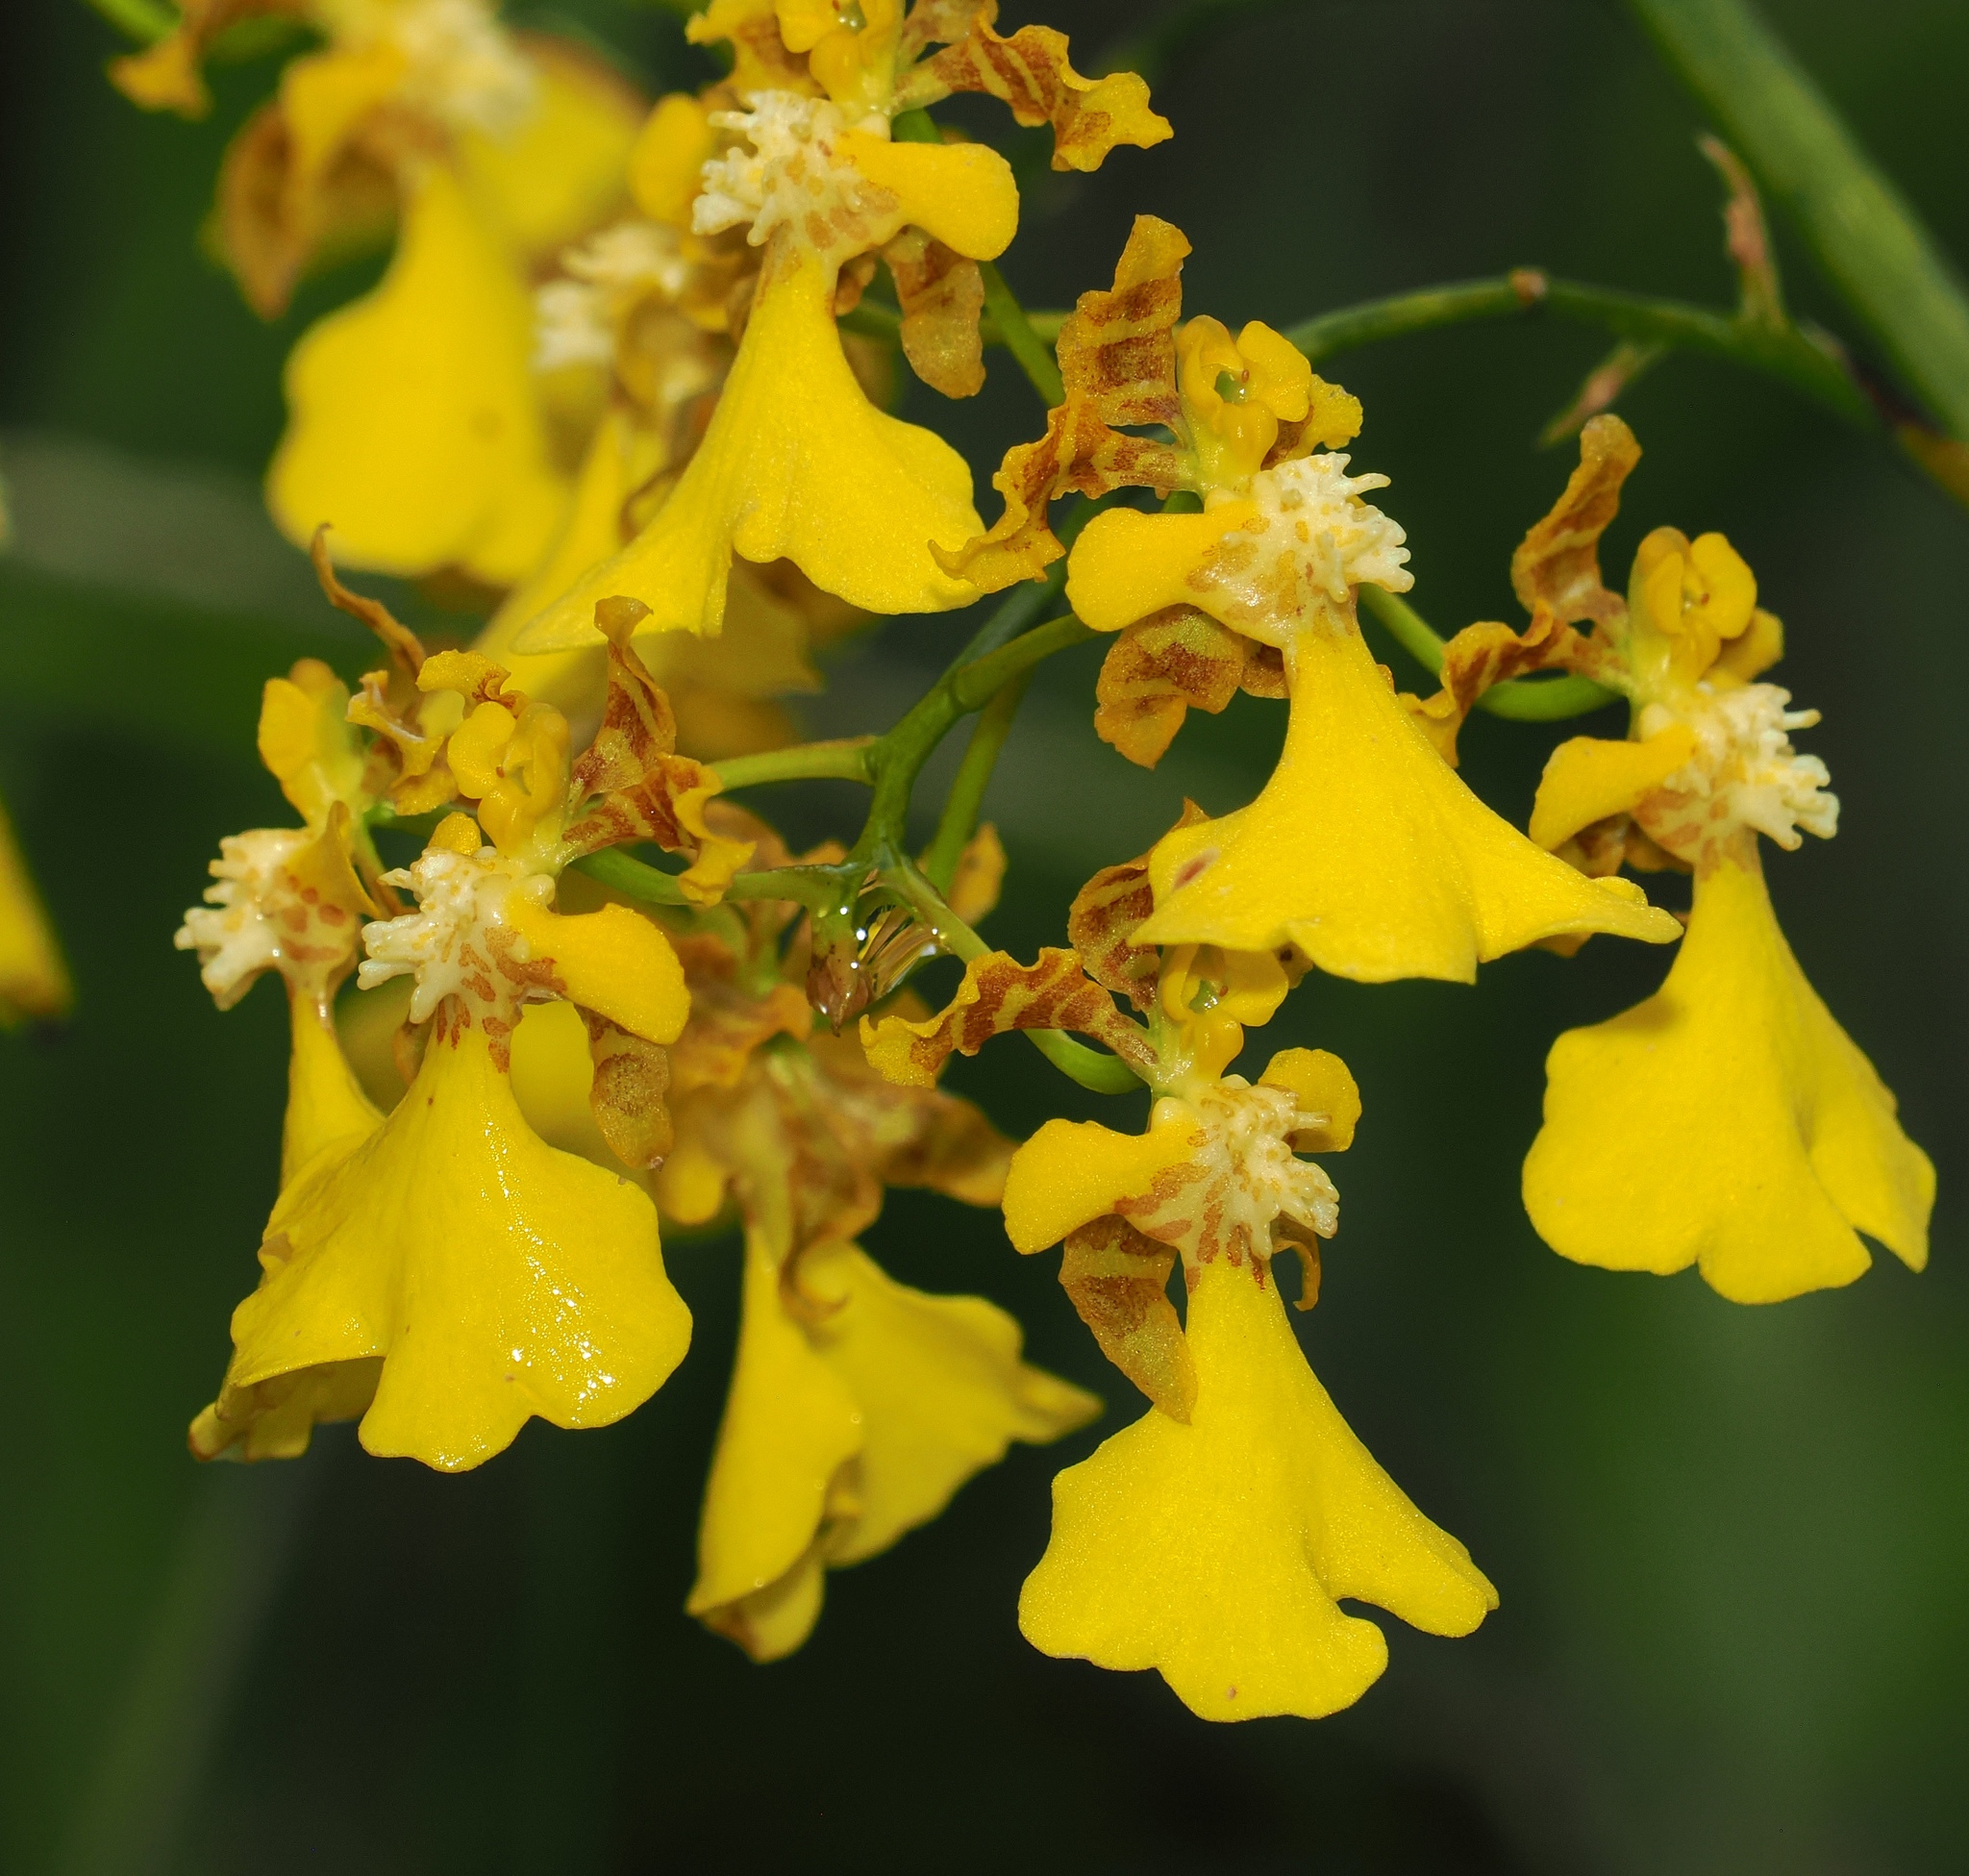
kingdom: Plantae
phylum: Tracheophyta
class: Liliopsida
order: Asparagales
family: Orchidaceae
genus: Gomesa
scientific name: Gomesa ramosa
